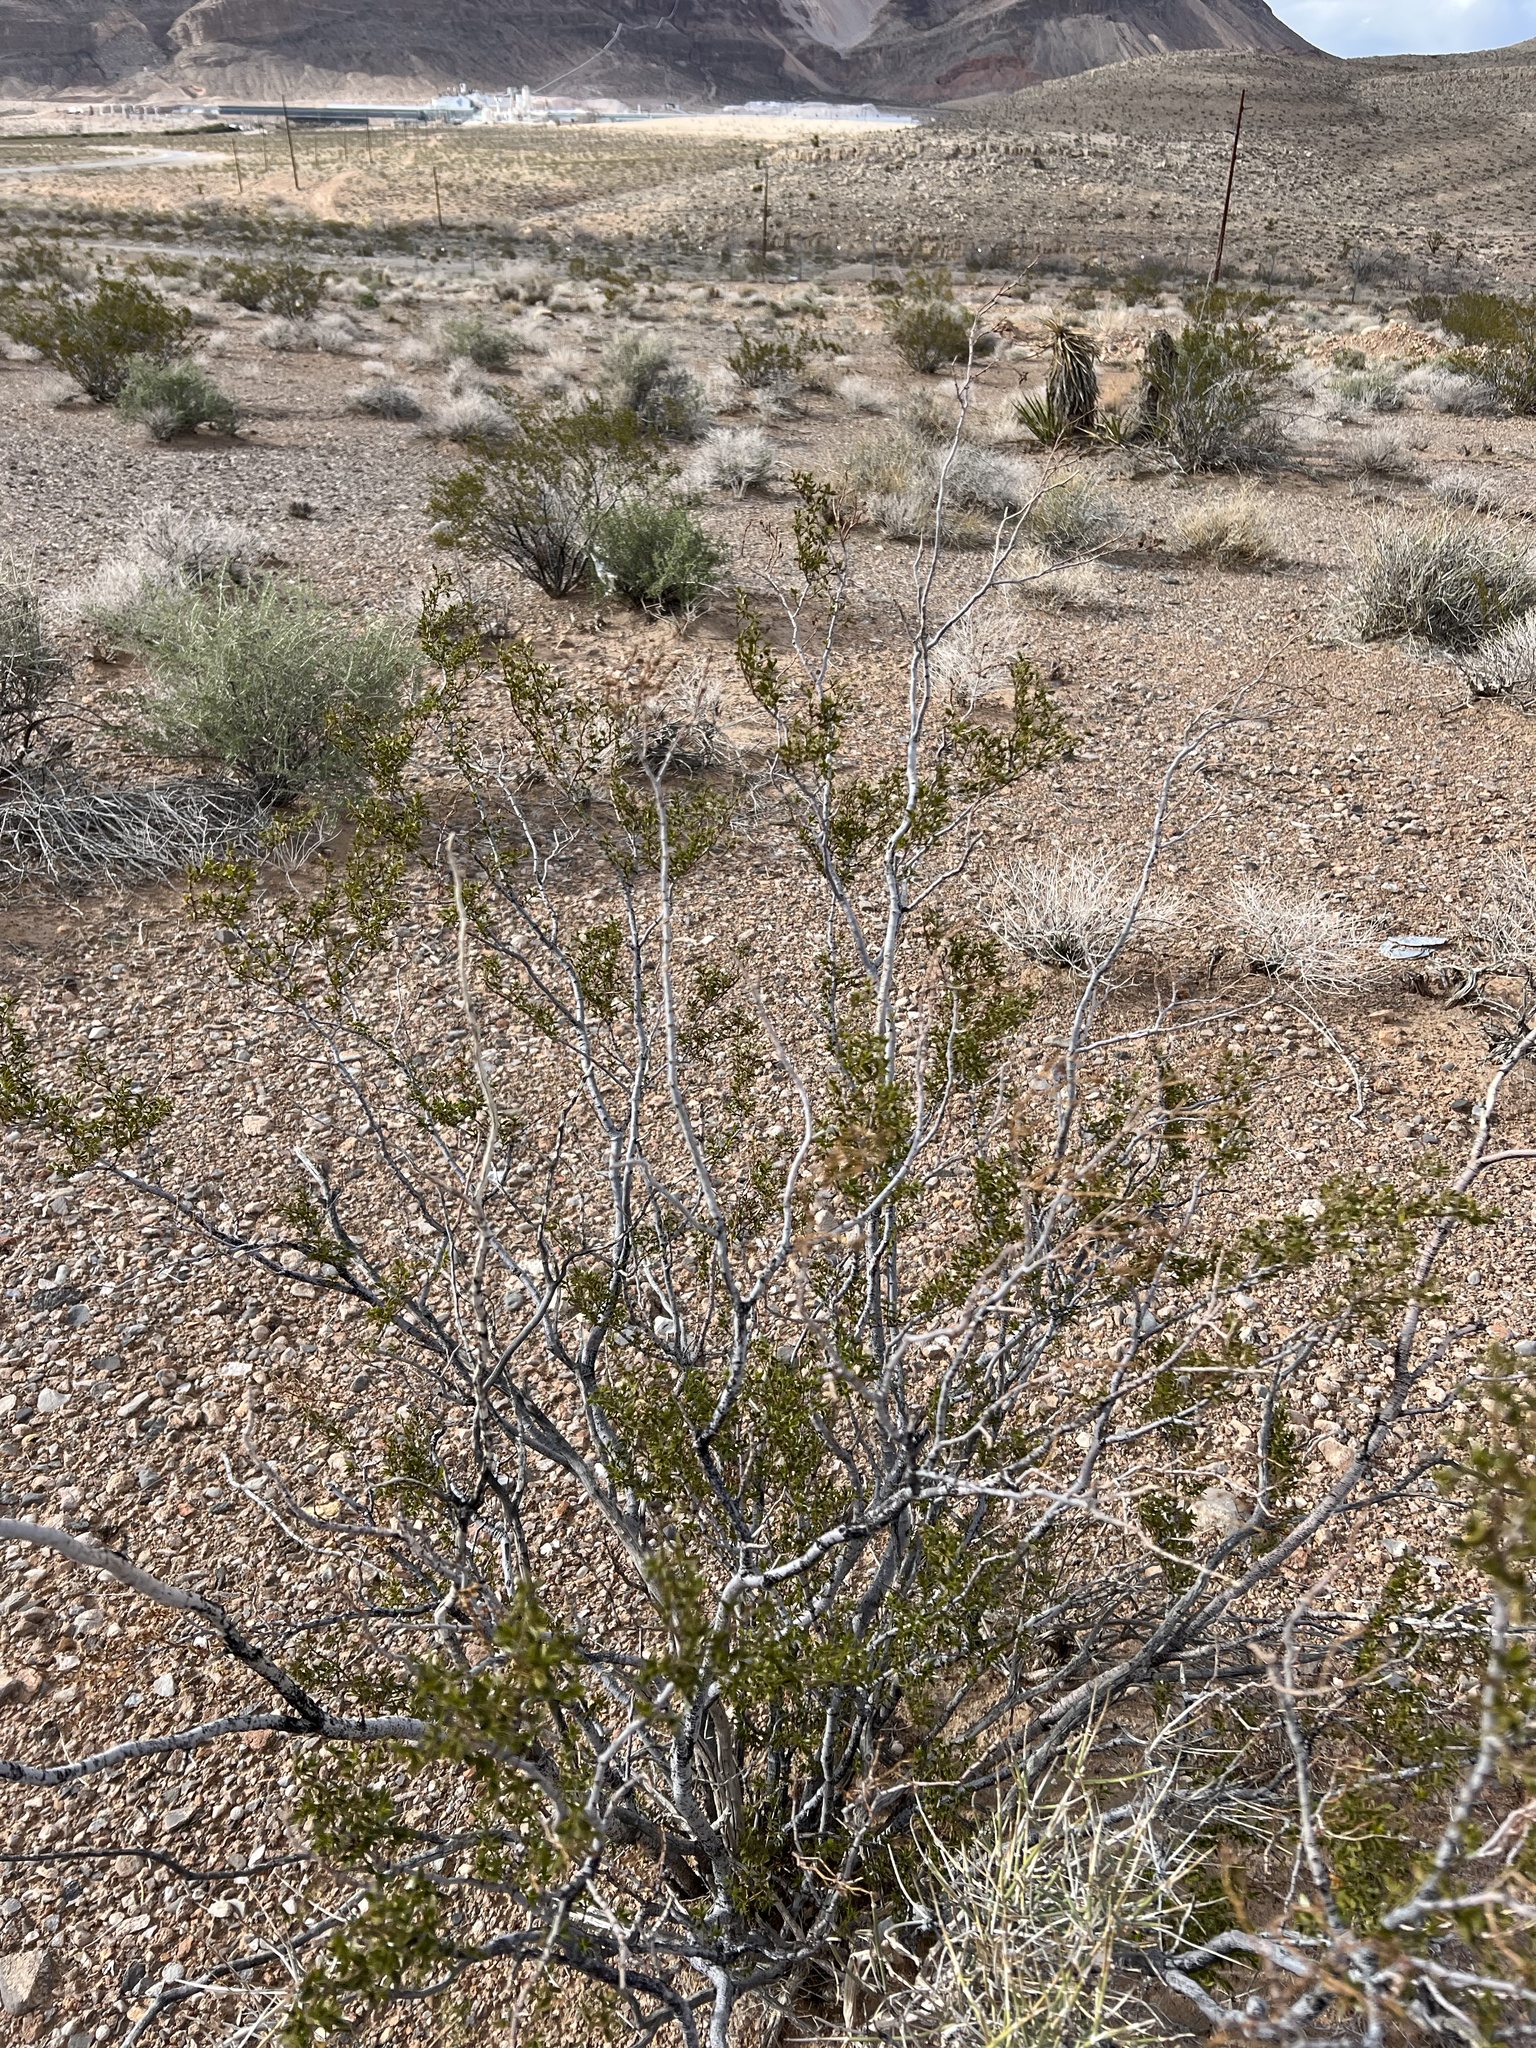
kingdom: Plantae
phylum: Tracheophyta
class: Magnoliopsida
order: Zygophyllales
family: Zygophyllaceae
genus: Larrea
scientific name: Larrea tridentata
